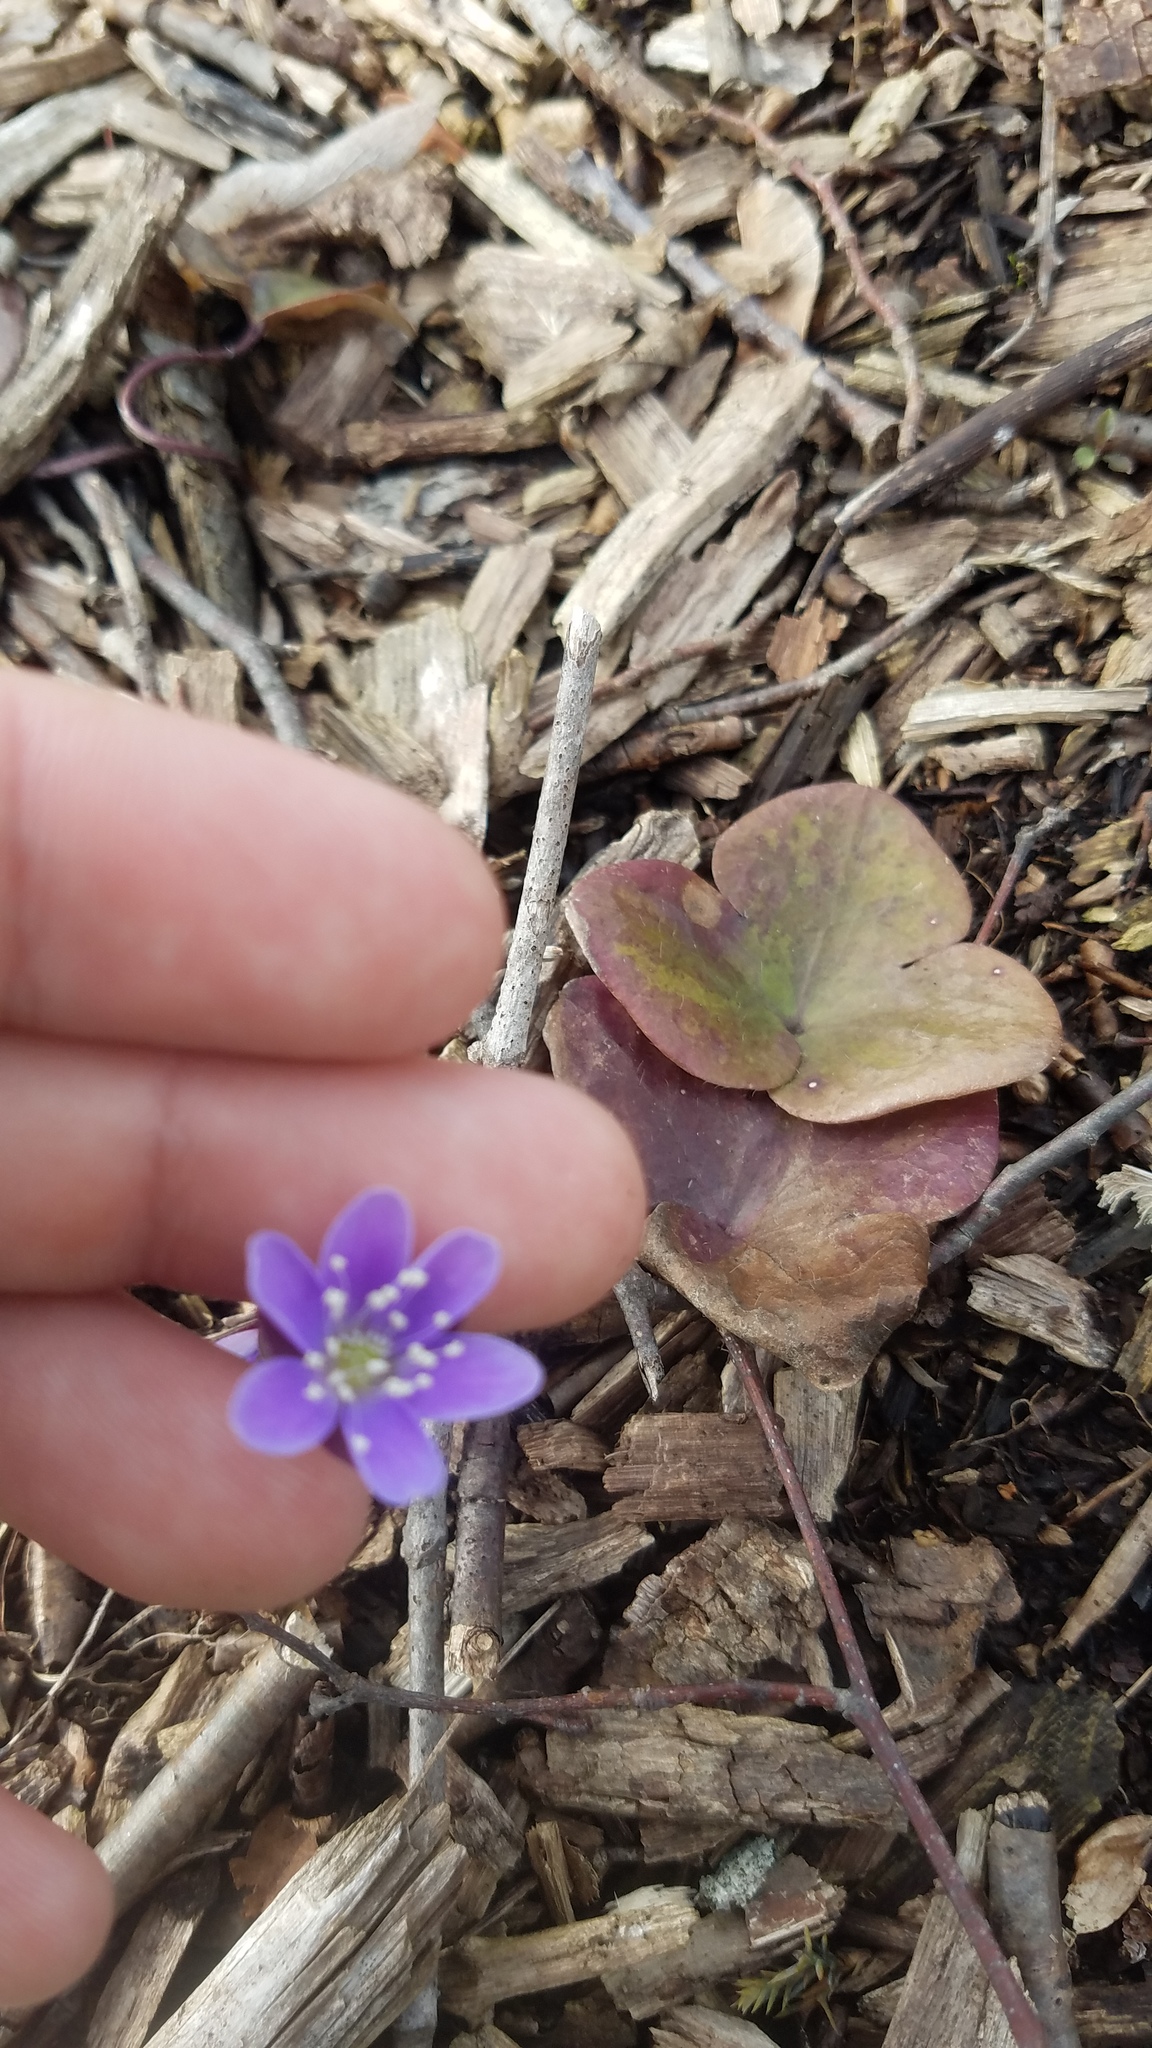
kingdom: Plantae
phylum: Tracheophyta
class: Magnoliopsida
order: Ranunculales
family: Ranunculaceae
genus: Hepatica
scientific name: Hepatica americana
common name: American hepatica
